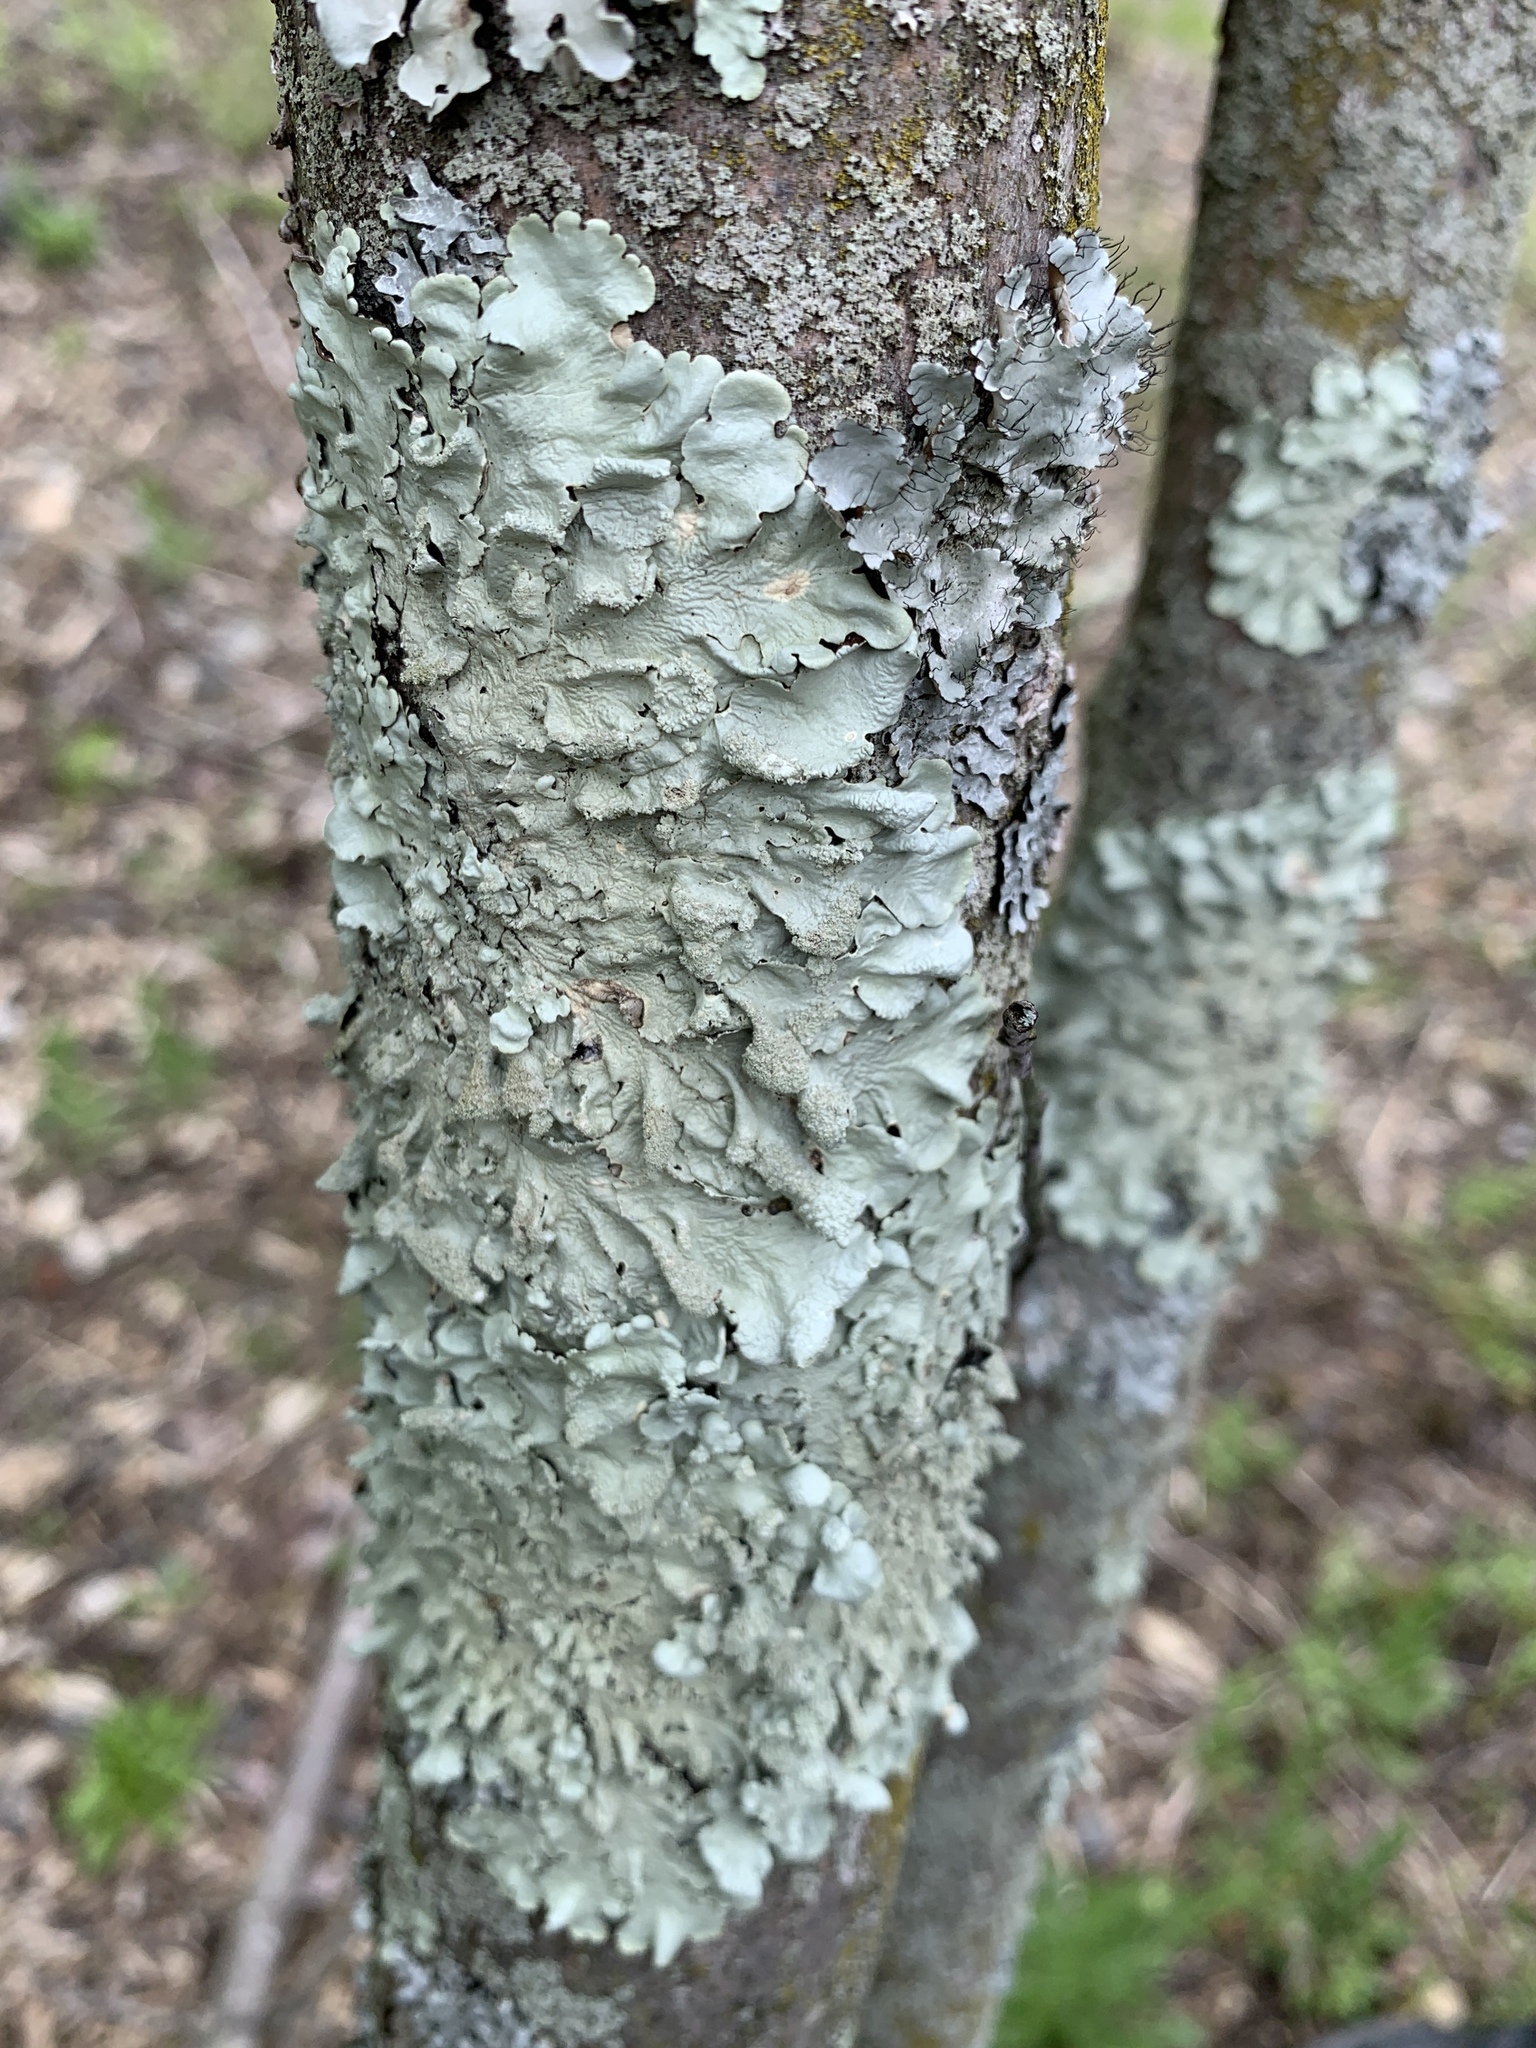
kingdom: Fungi
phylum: Ascomycota
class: Lecanoromycetes
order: Lecanorales
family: Parmeliaceae
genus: Flavoparmelia
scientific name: Flavoparmelia caperata
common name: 40-mile per hour lichen
